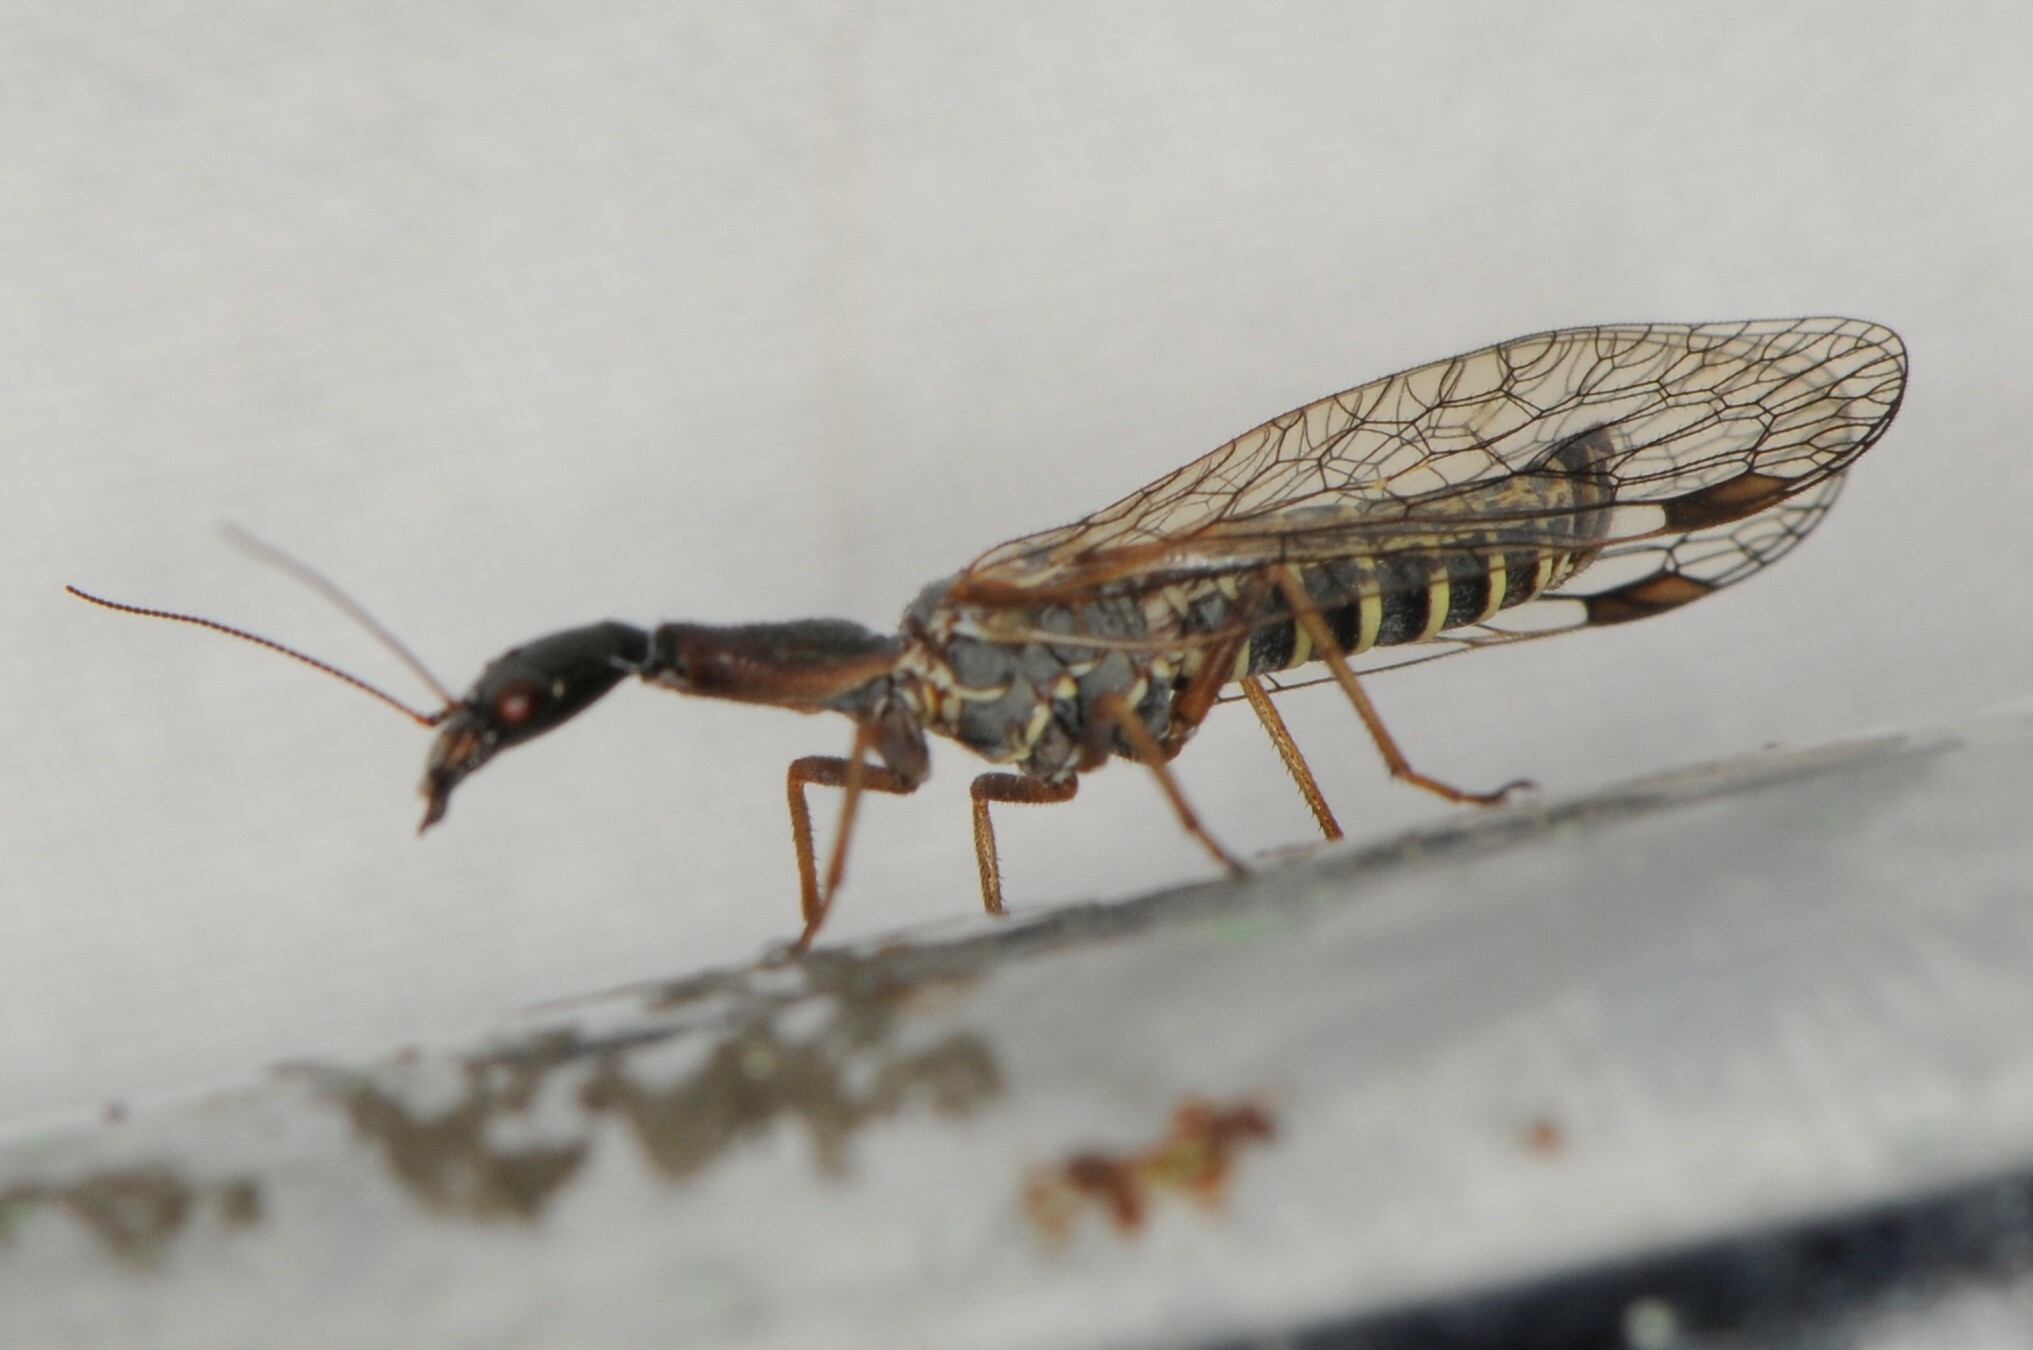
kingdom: Animalia
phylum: Arthropoda
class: Insecta
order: Raphidioptera
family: Raphidiidae
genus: Agulla
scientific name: Agulla bicolor
